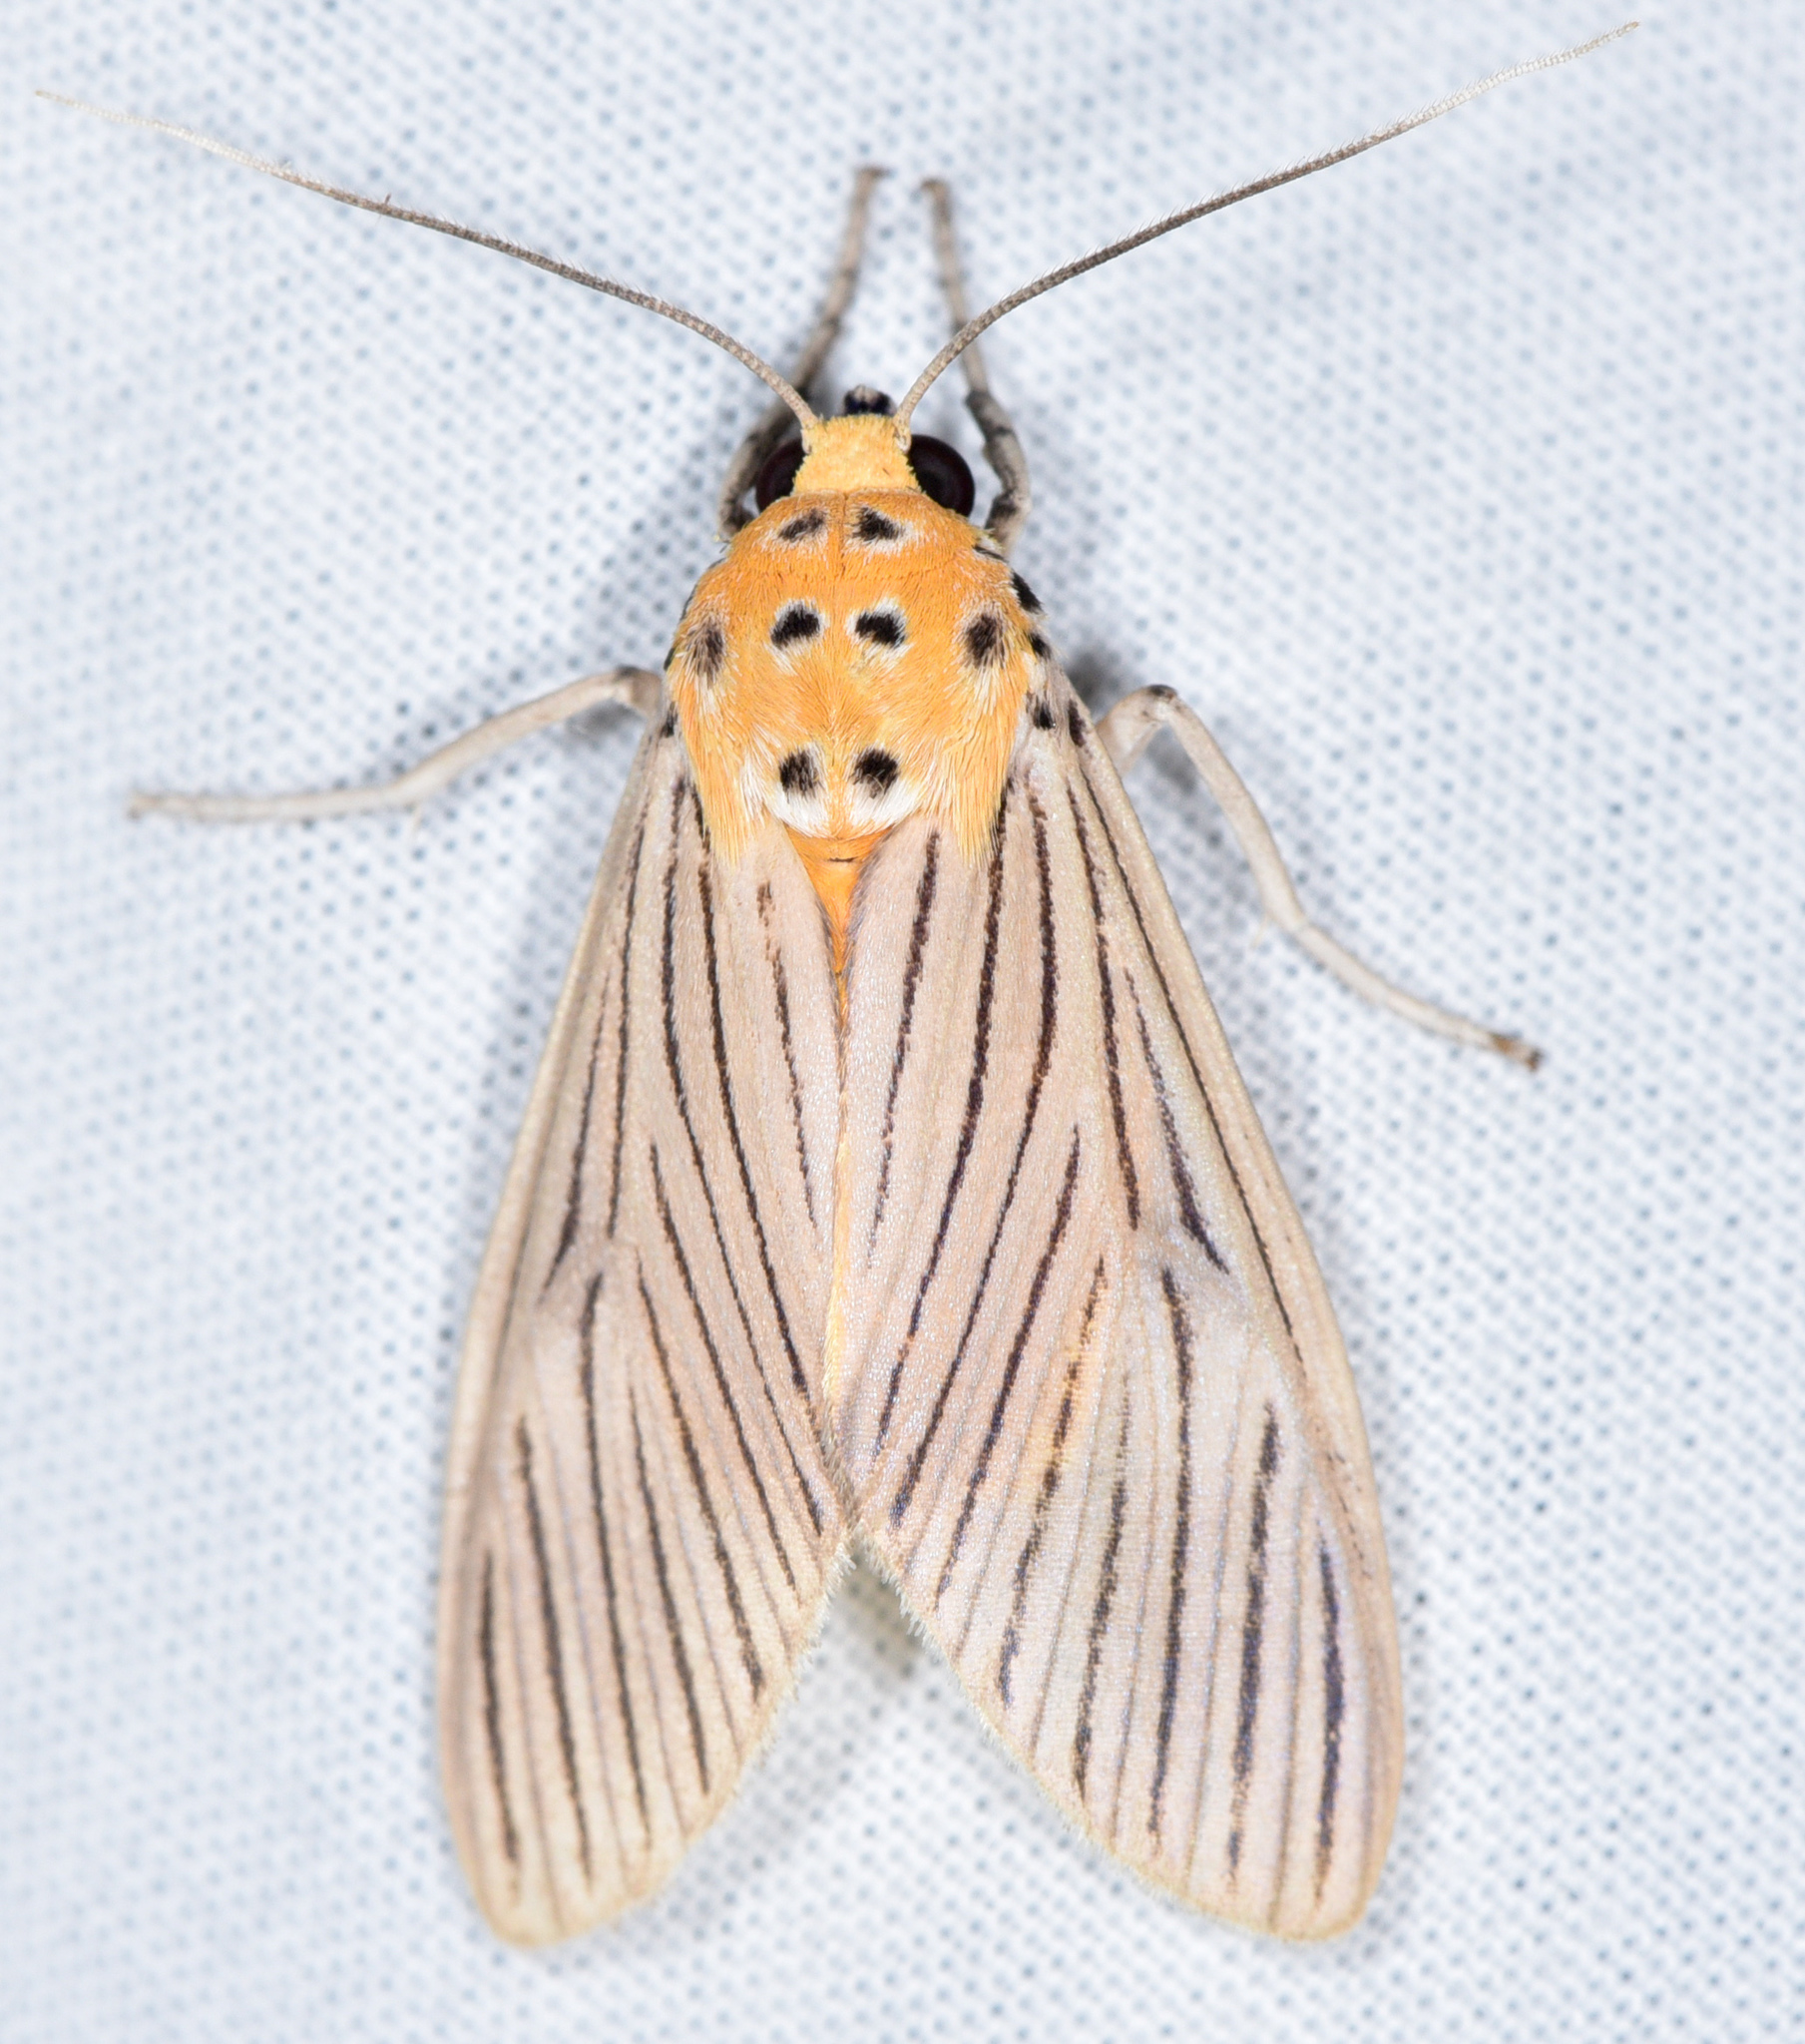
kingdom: Animalia
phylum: Arthropoda
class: Insecta
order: Lepidoptera
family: Erebidae
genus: Phaeomolis
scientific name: Phaeomolis lineatus
